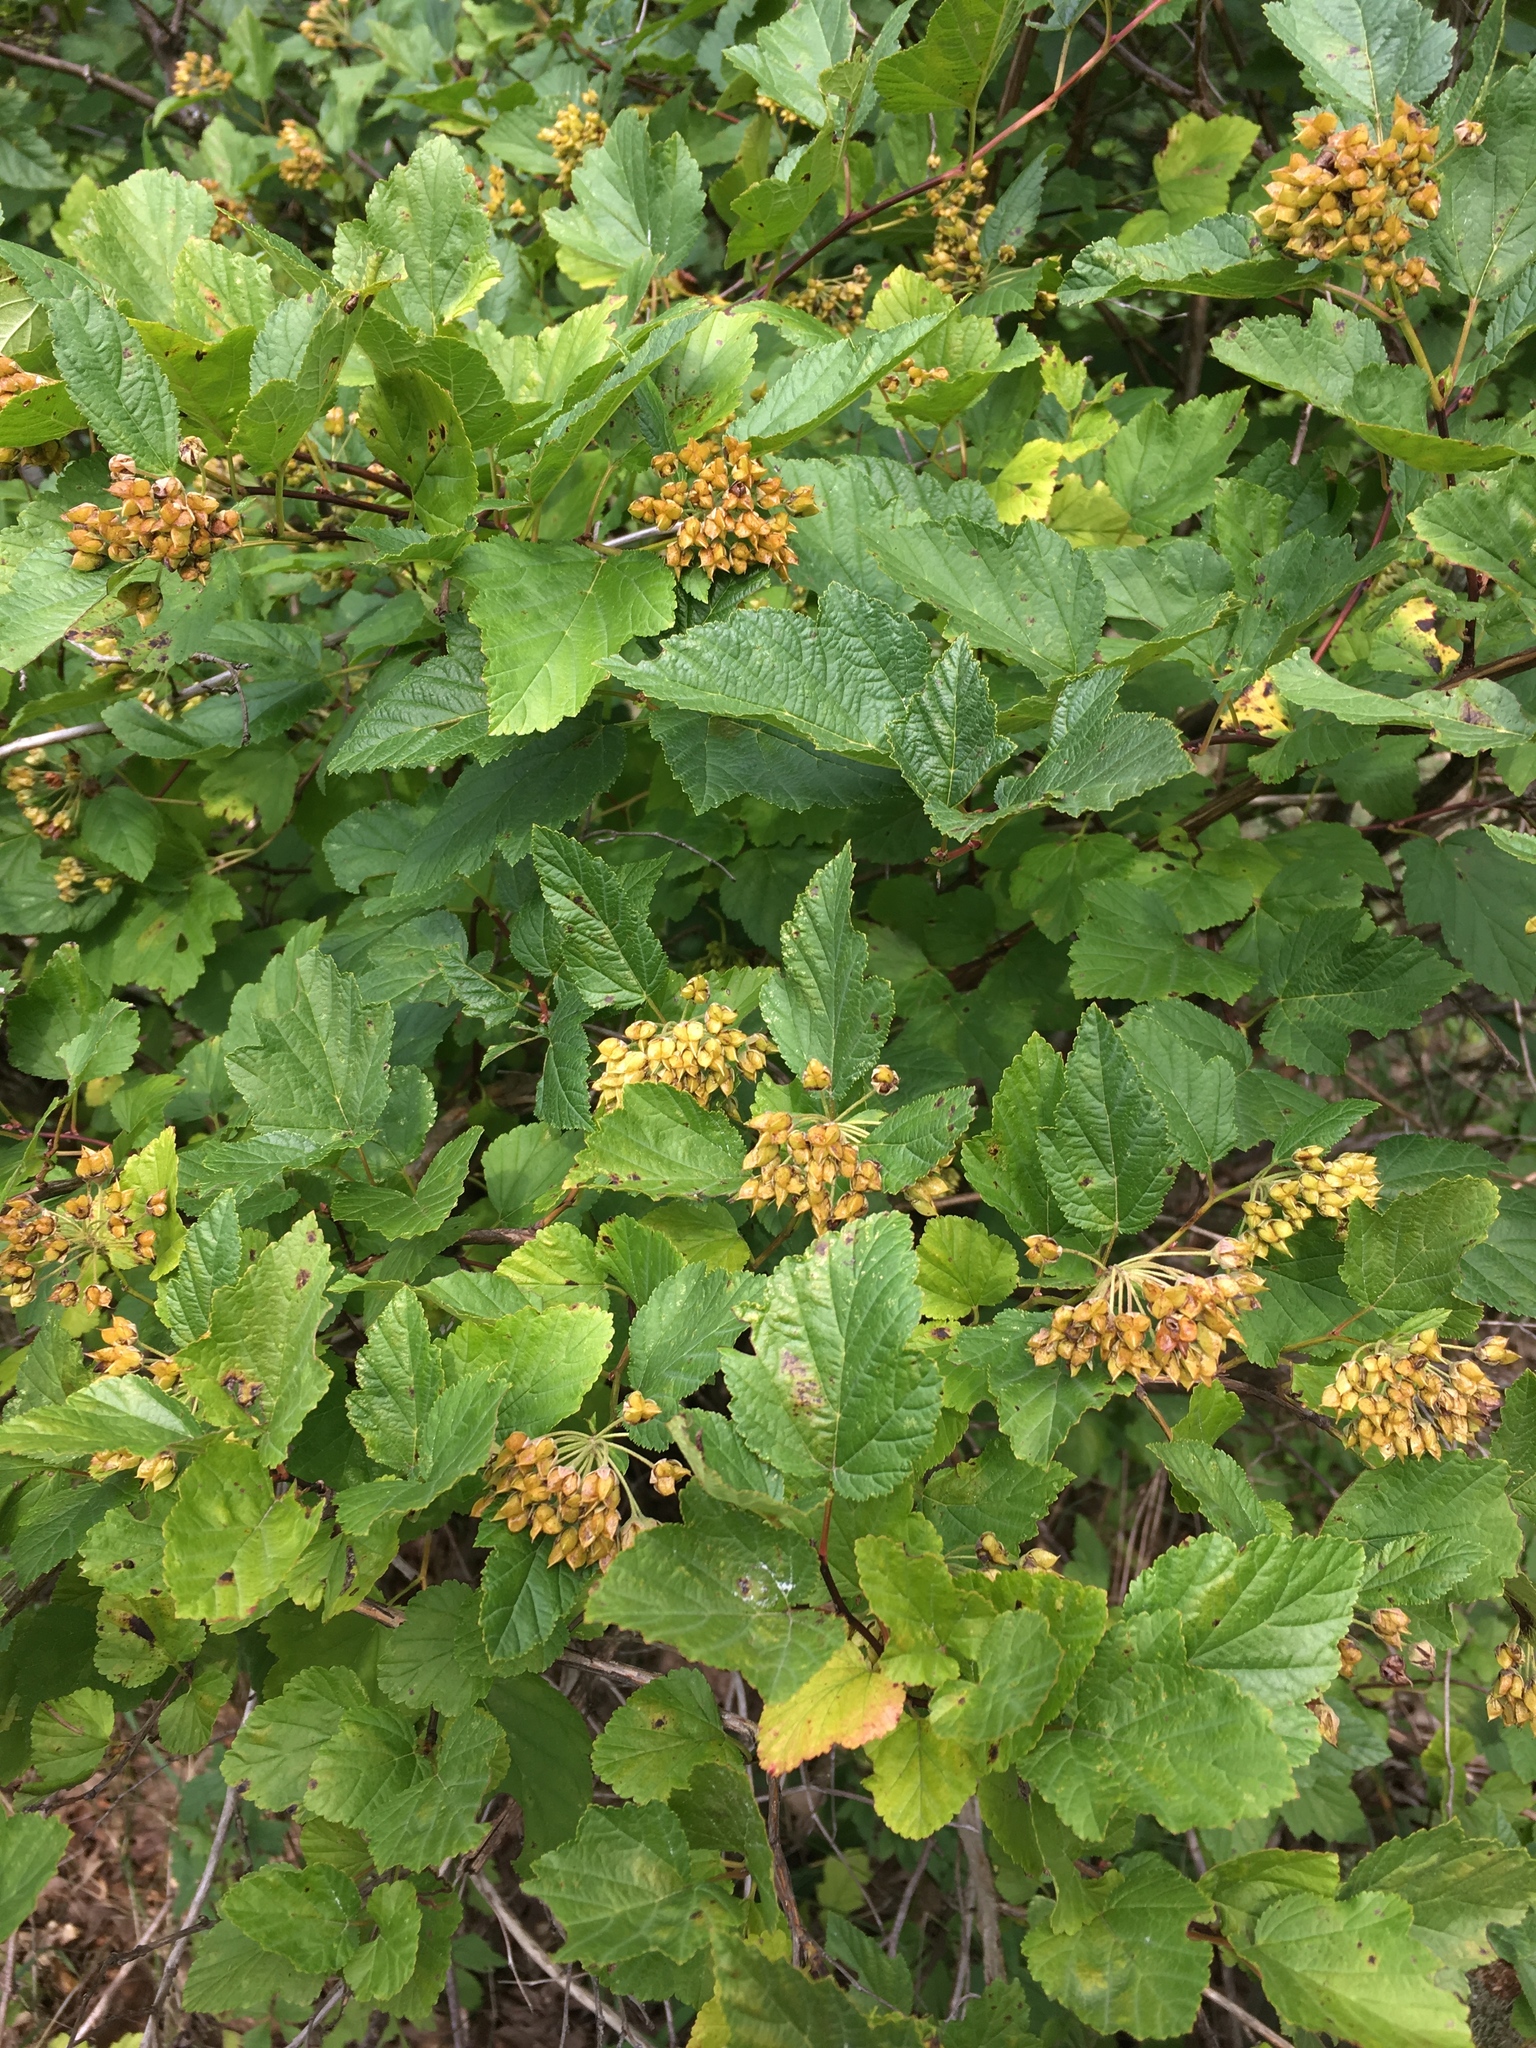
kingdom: Plantae
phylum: Tracheophyta
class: Magnoliopsida
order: Rosales
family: Rosaceae
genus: Physocarpus
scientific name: Physocarpus opulifolius
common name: Ninebark
